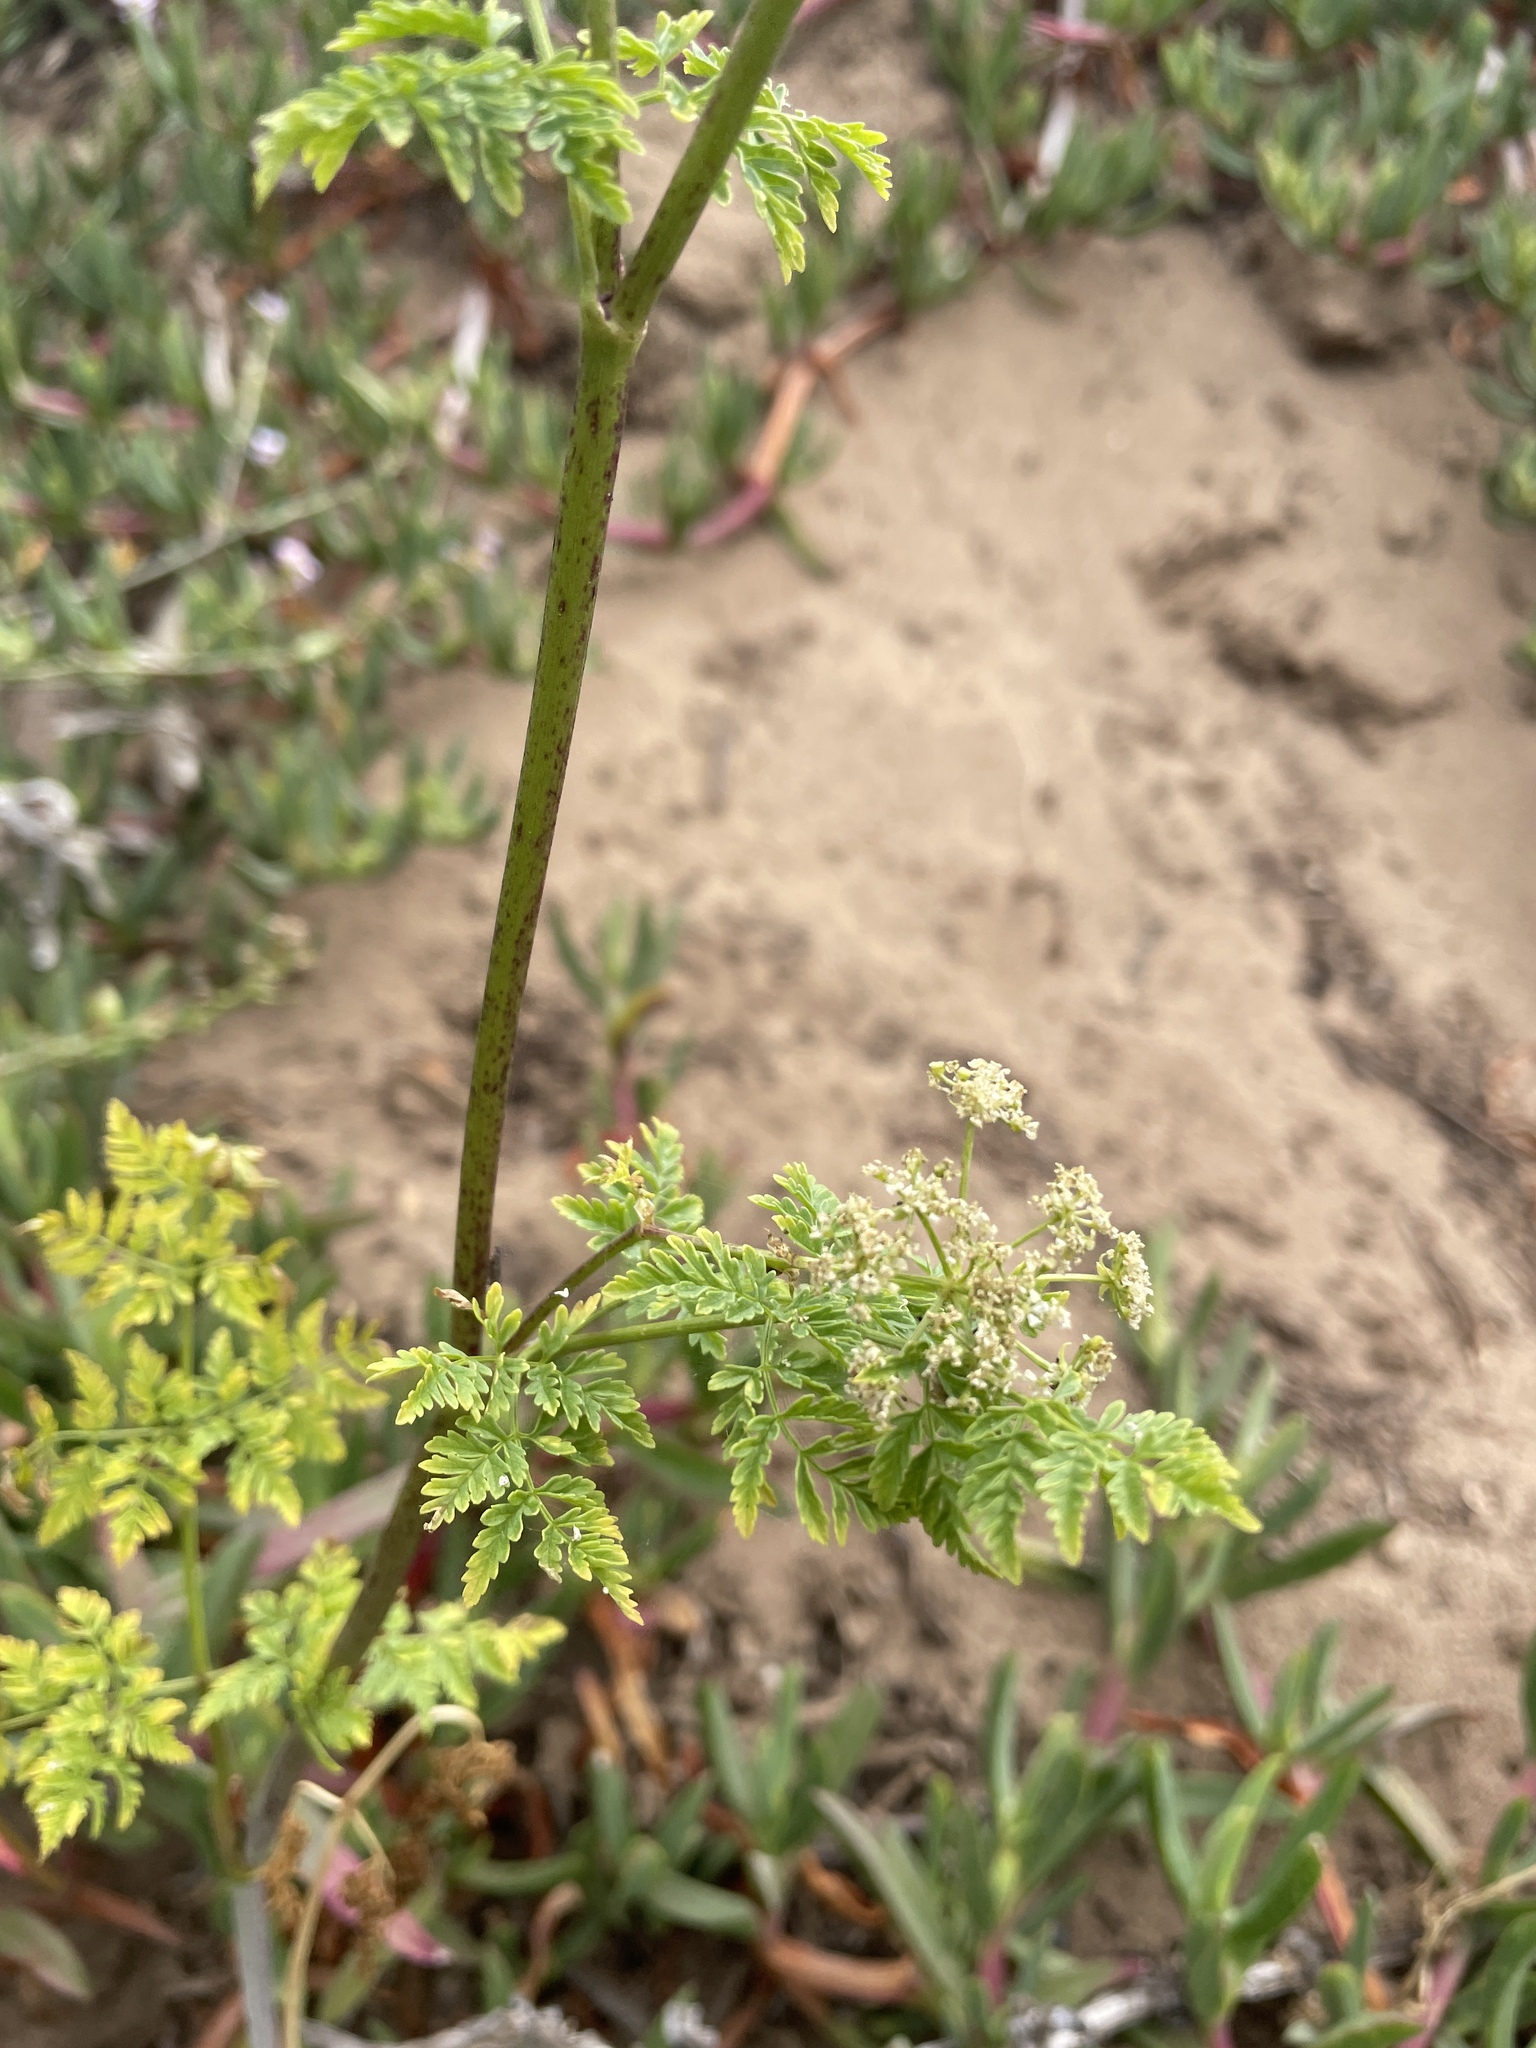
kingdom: Plantae
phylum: Tracheophyta
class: Magnoliopsida
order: Apiales
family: Apiaceae
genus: Conium
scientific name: Conium maculatum
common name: Hemlock
